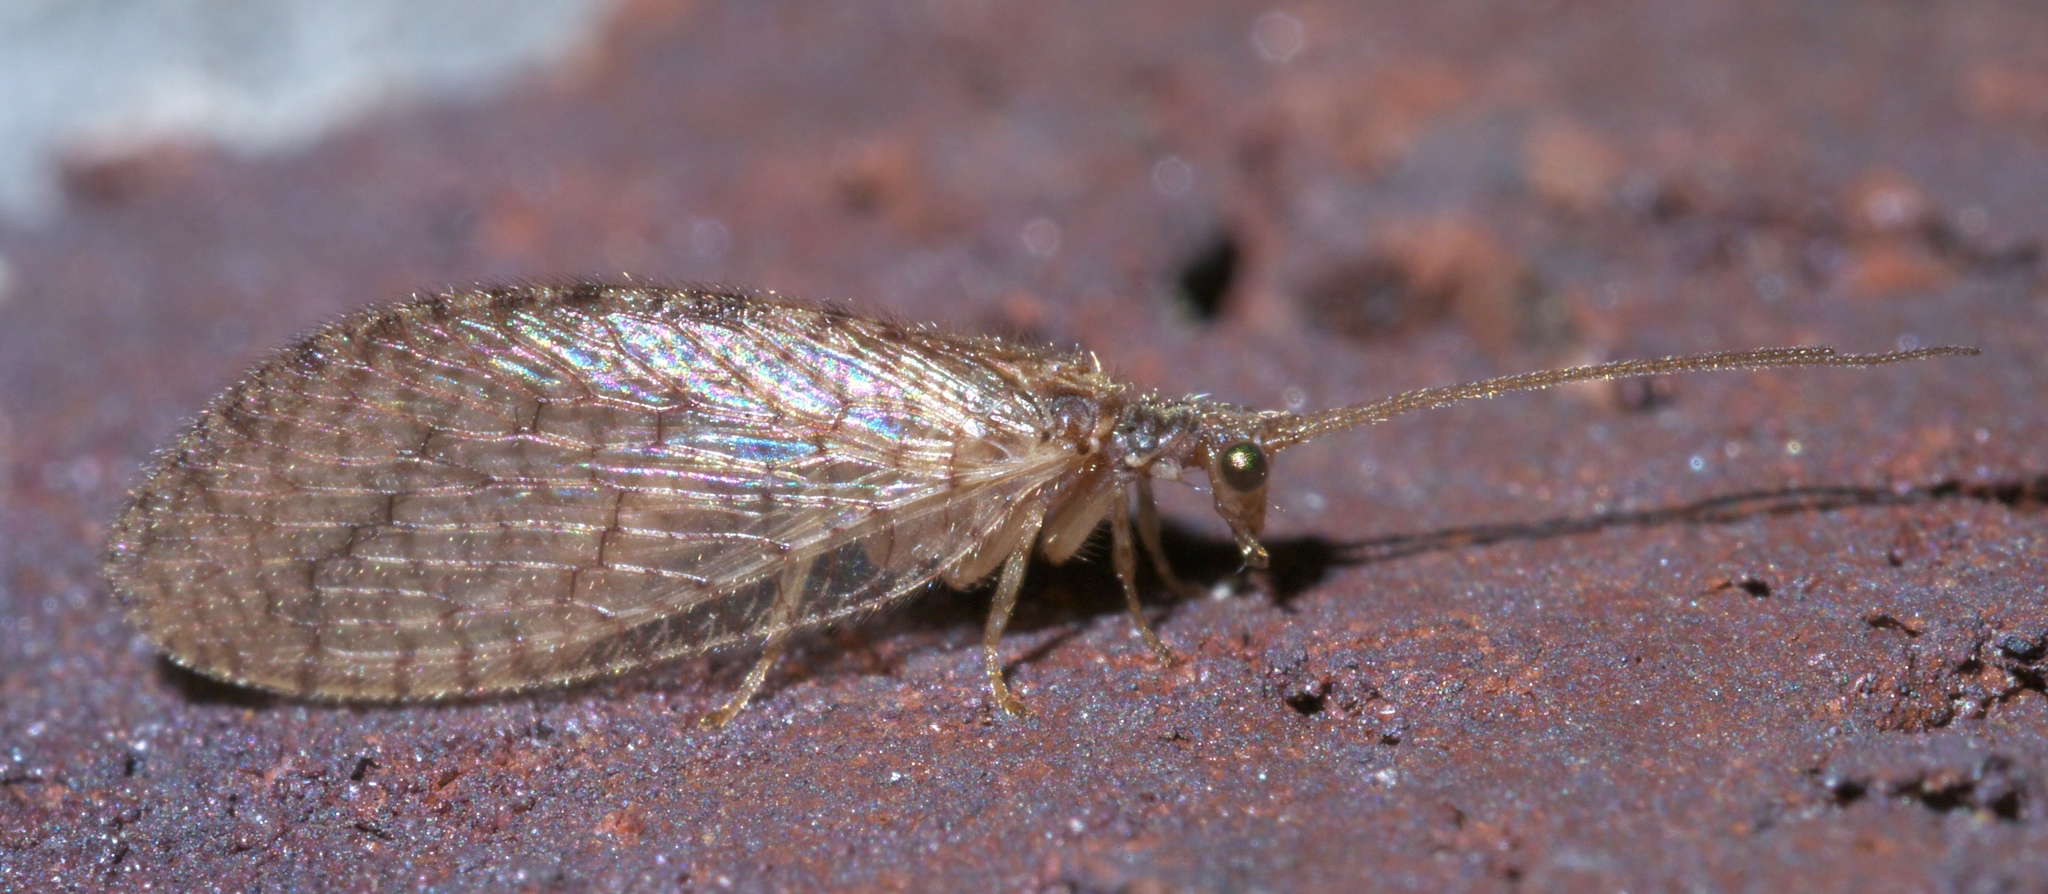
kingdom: Animalia
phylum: Arthropoda
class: Insecta
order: Neuroptera
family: Hemerobiidae
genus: Micromus
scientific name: Micromus posticus
